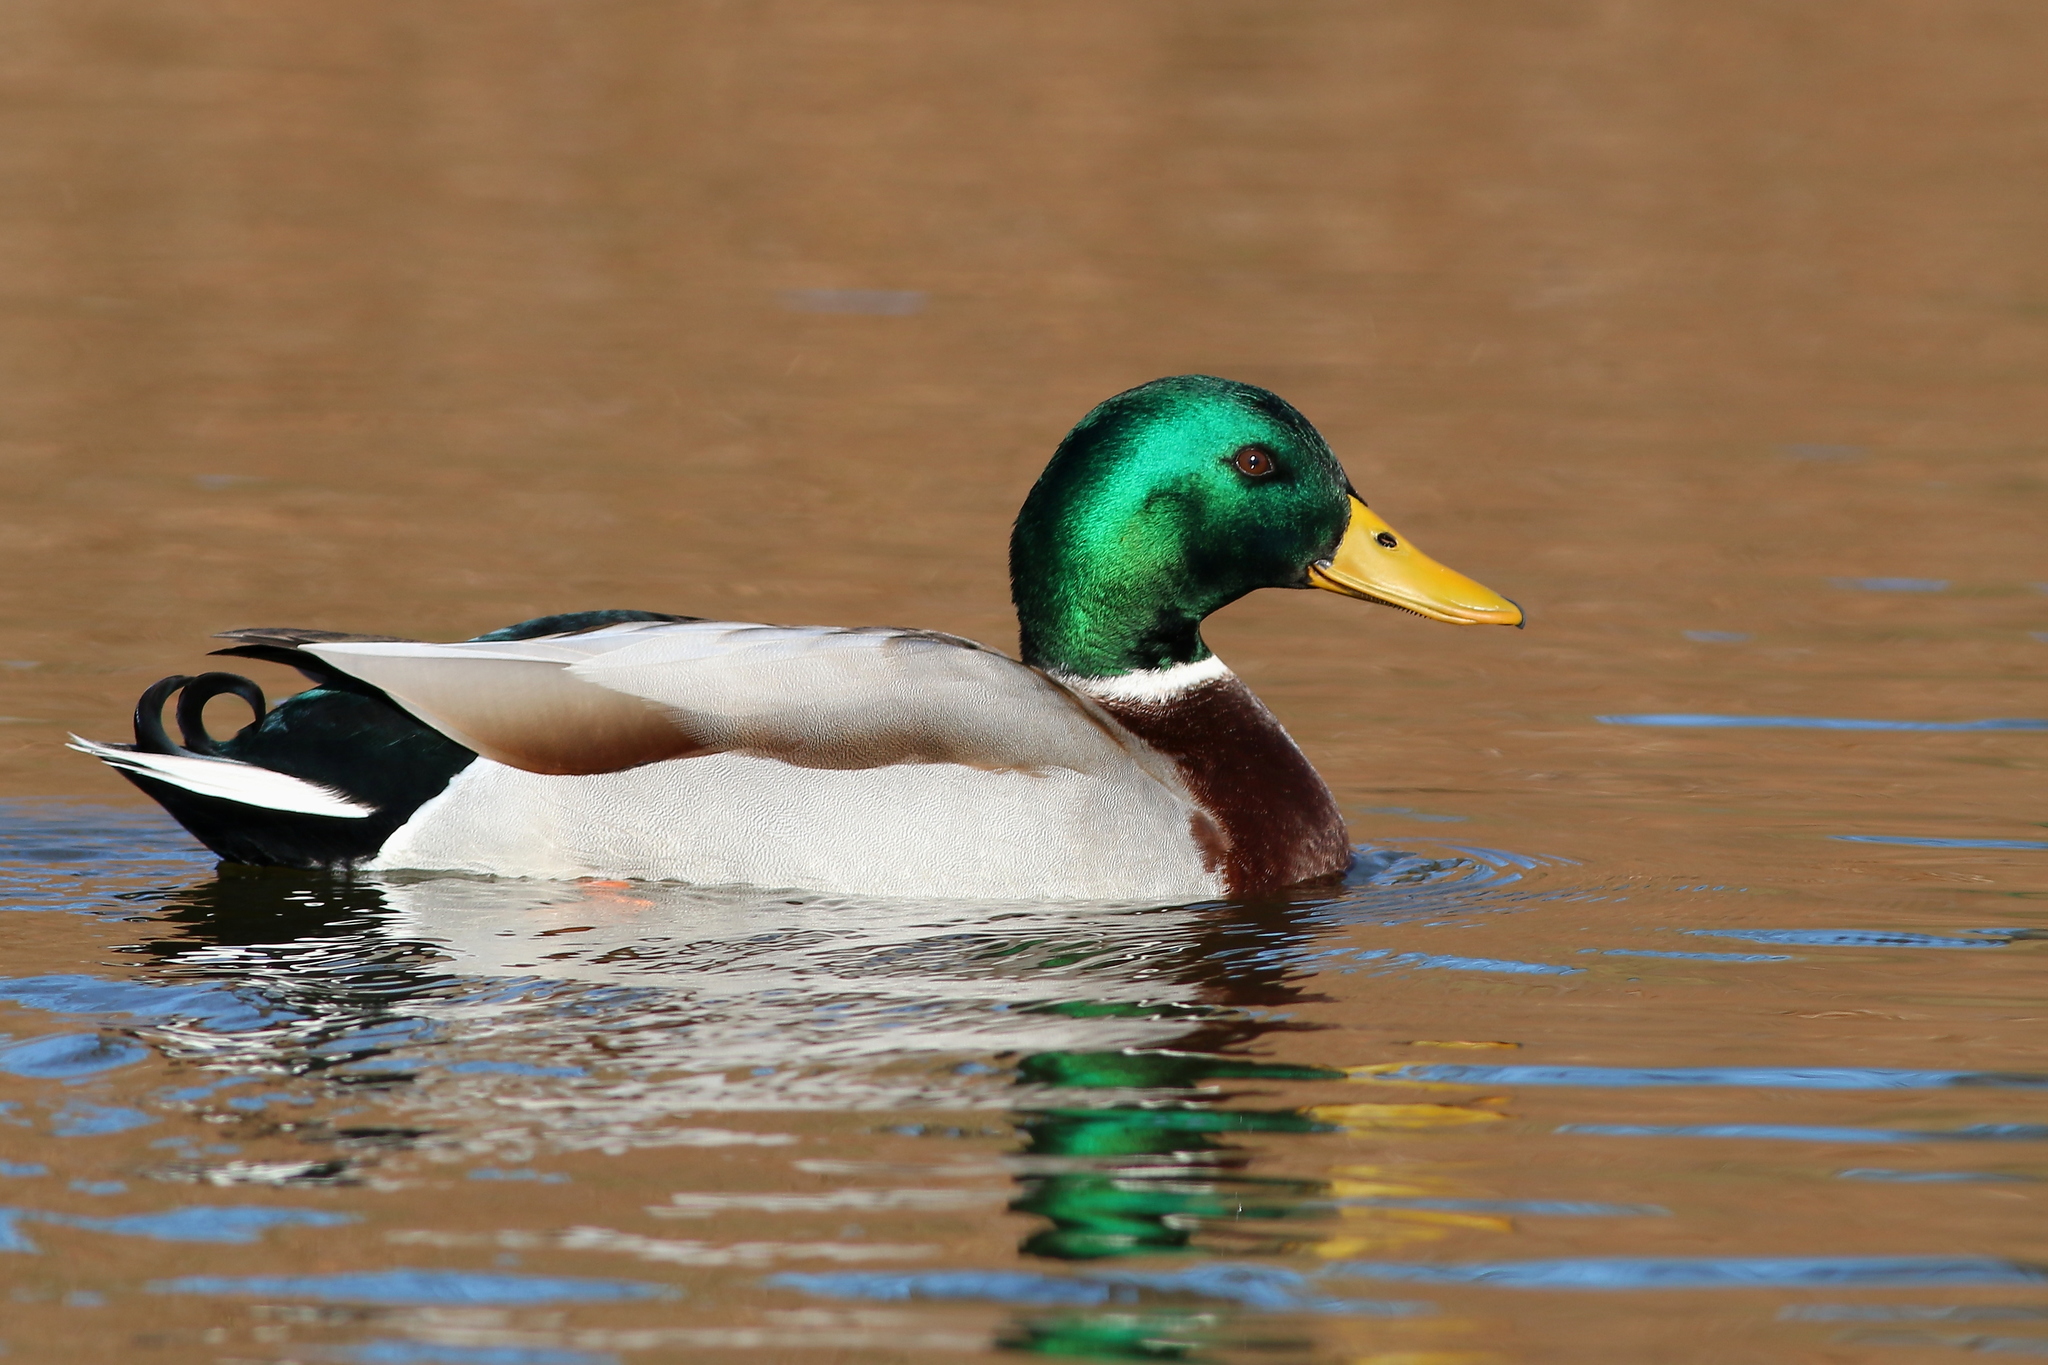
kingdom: Animalia
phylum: Chordata
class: Aves
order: Anseriformes
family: Anatidae
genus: Anas
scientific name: Anas platyrhynchos
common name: Mallard
